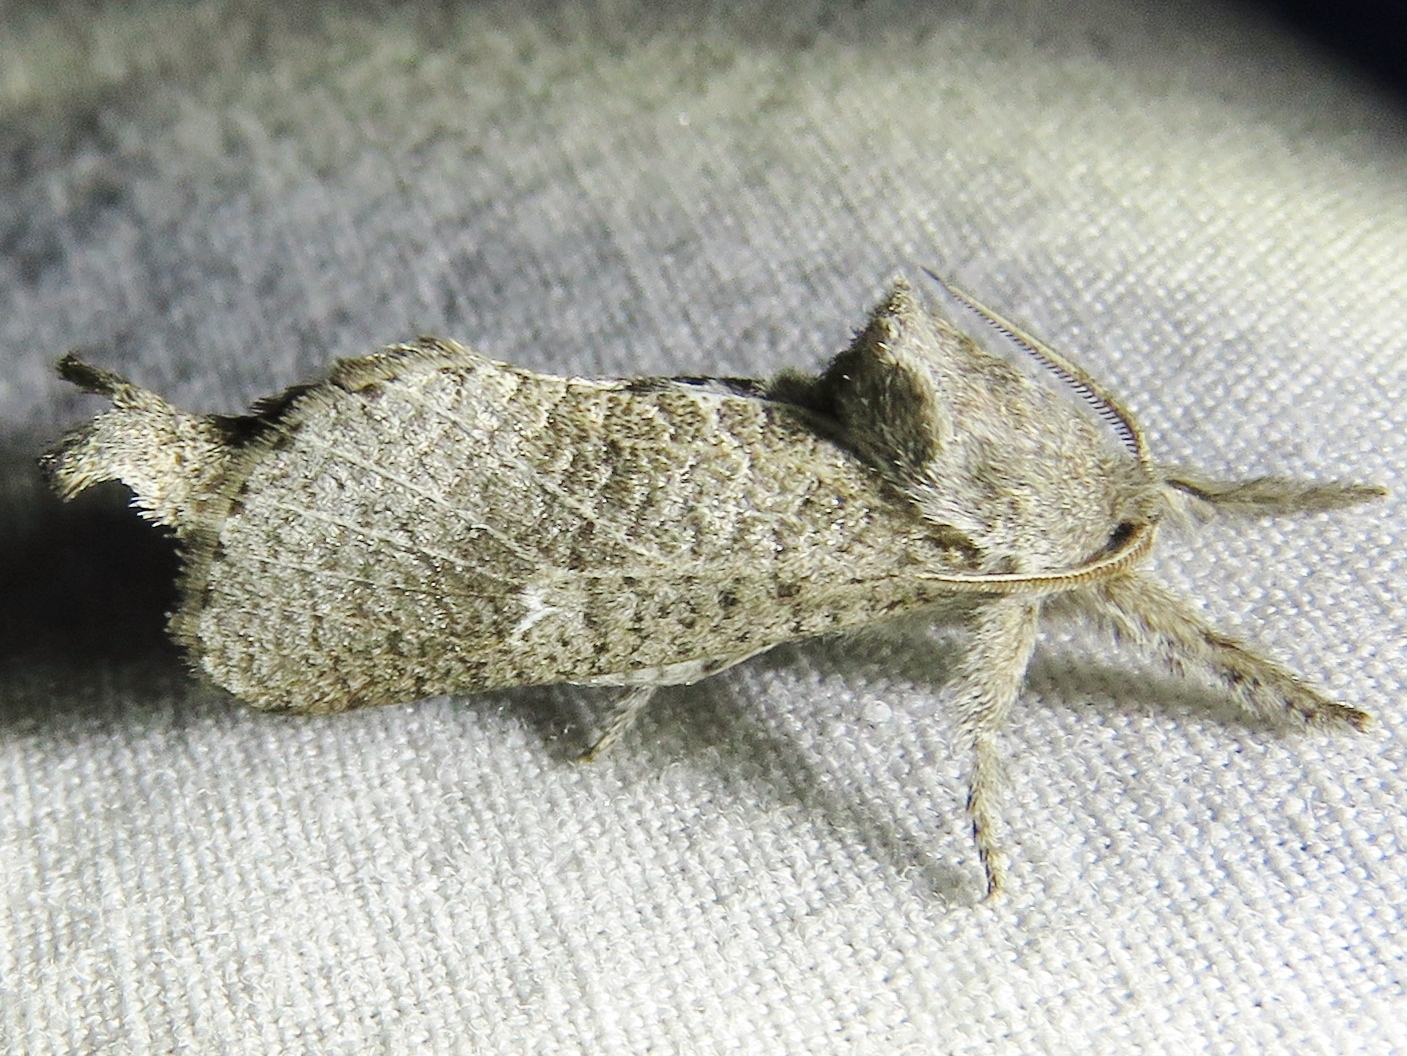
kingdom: Animalia
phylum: Arthropoda
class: Insecta
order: Lepidoptera
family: Cossidae
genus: Givira
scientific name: Givira anna
